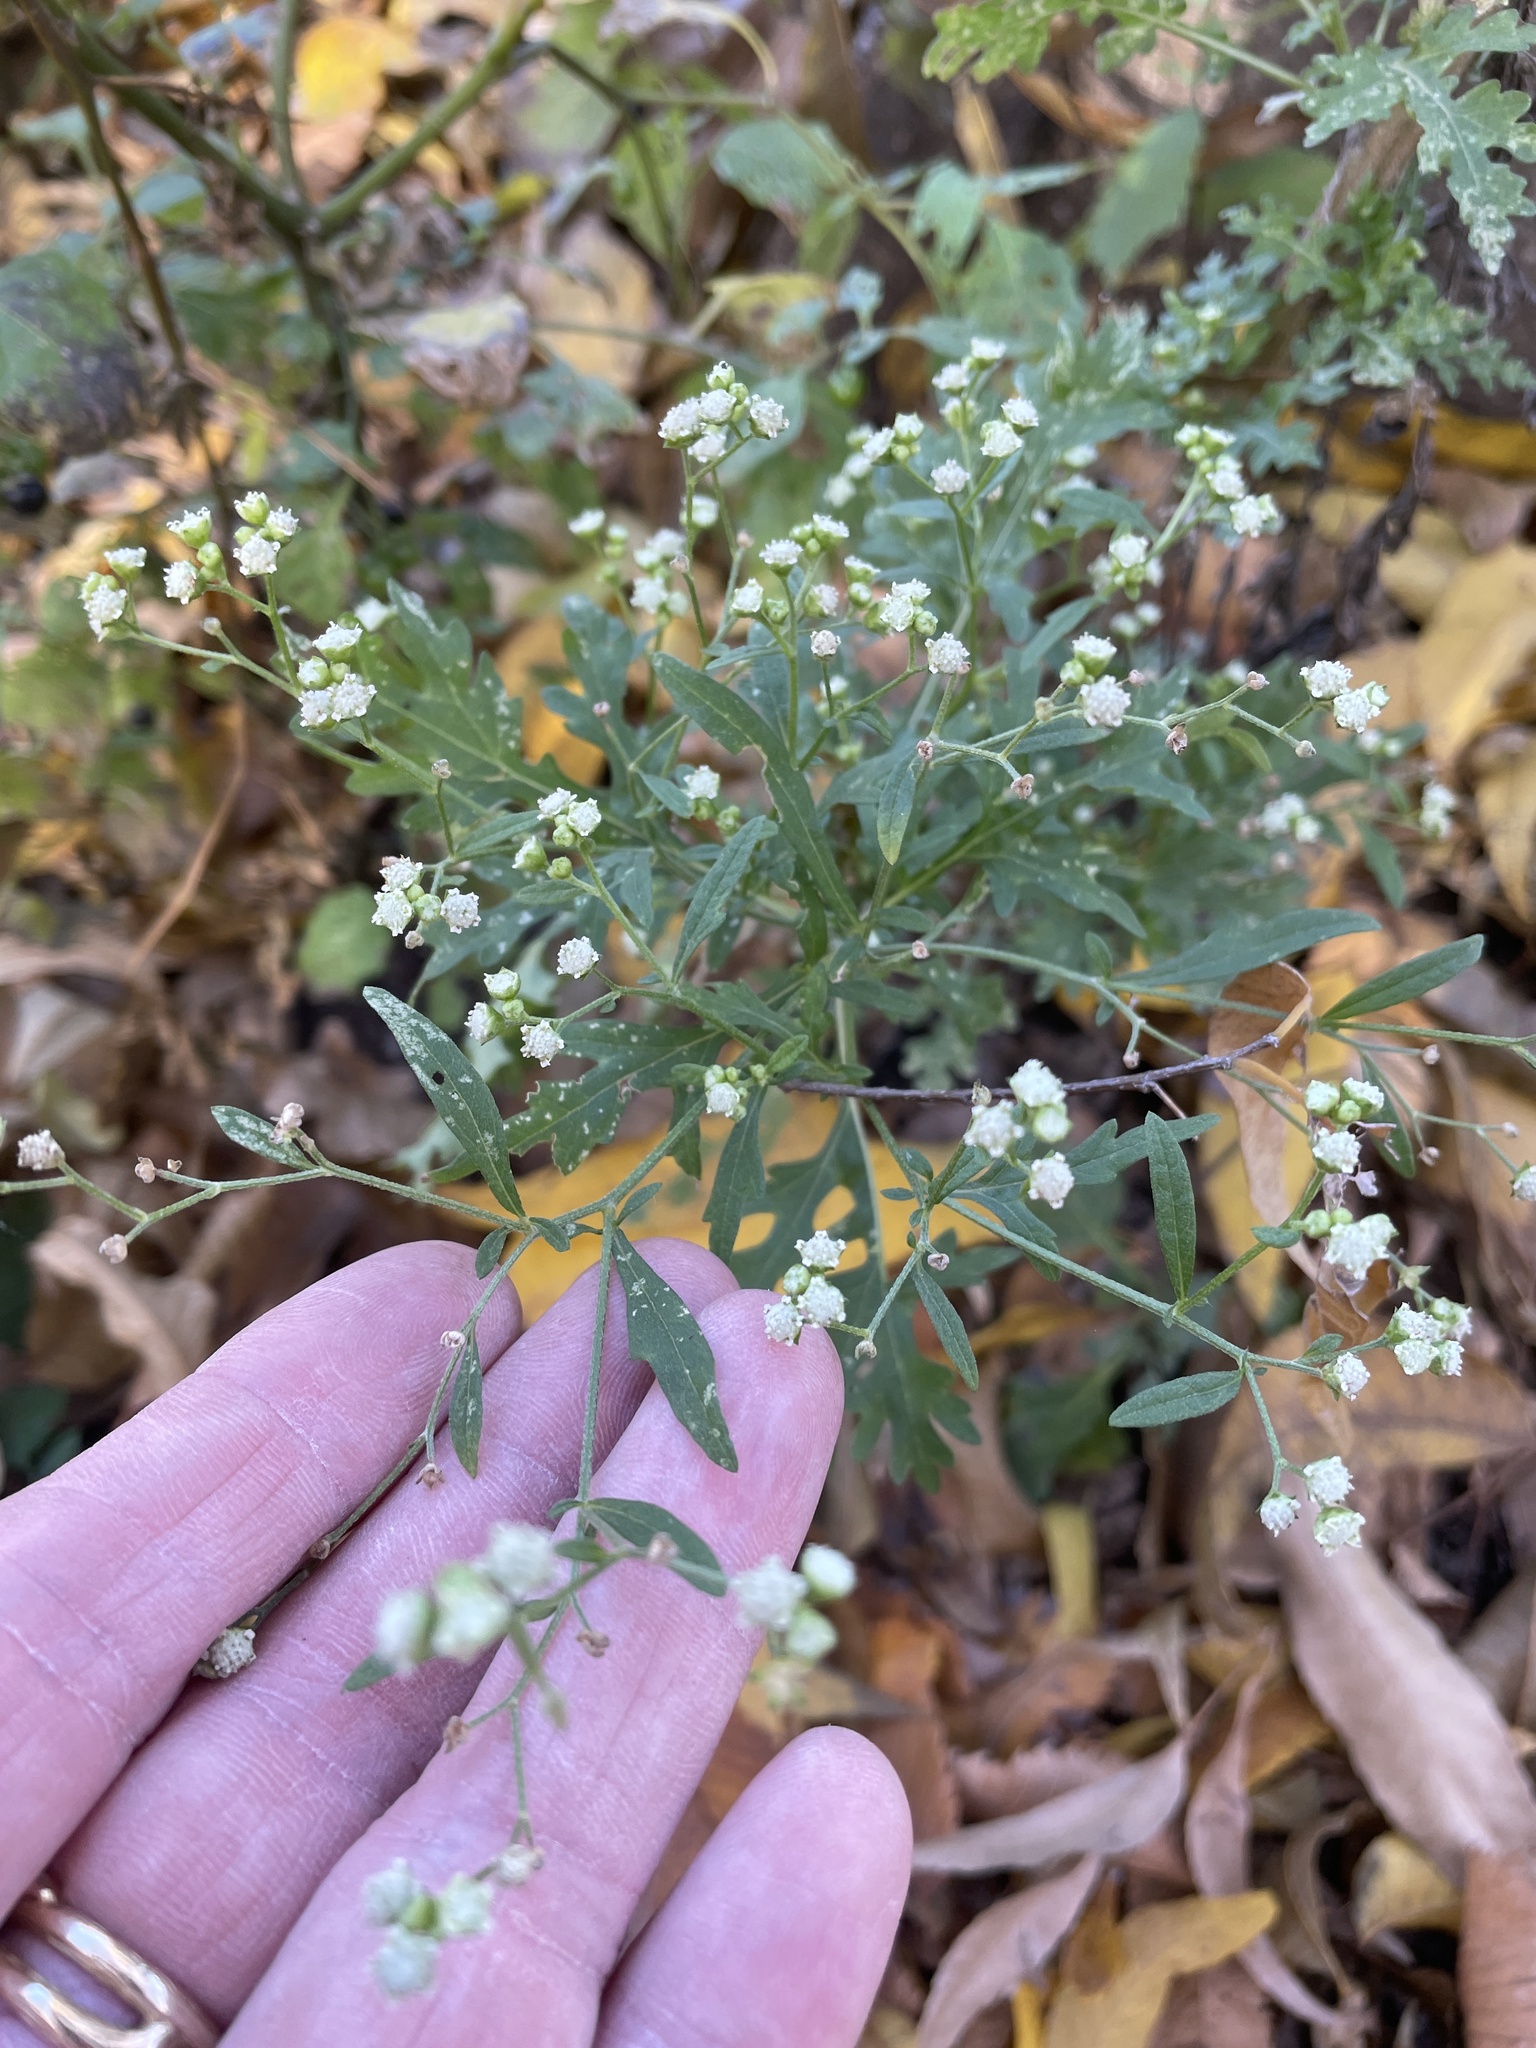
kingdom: Plantae
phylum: Tracheophyta
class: Magnoliopsida
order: Asterales
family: Asteraceae
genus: Parthenium
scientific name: Parthenium hysterophorus
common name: Santa maria feverfew
